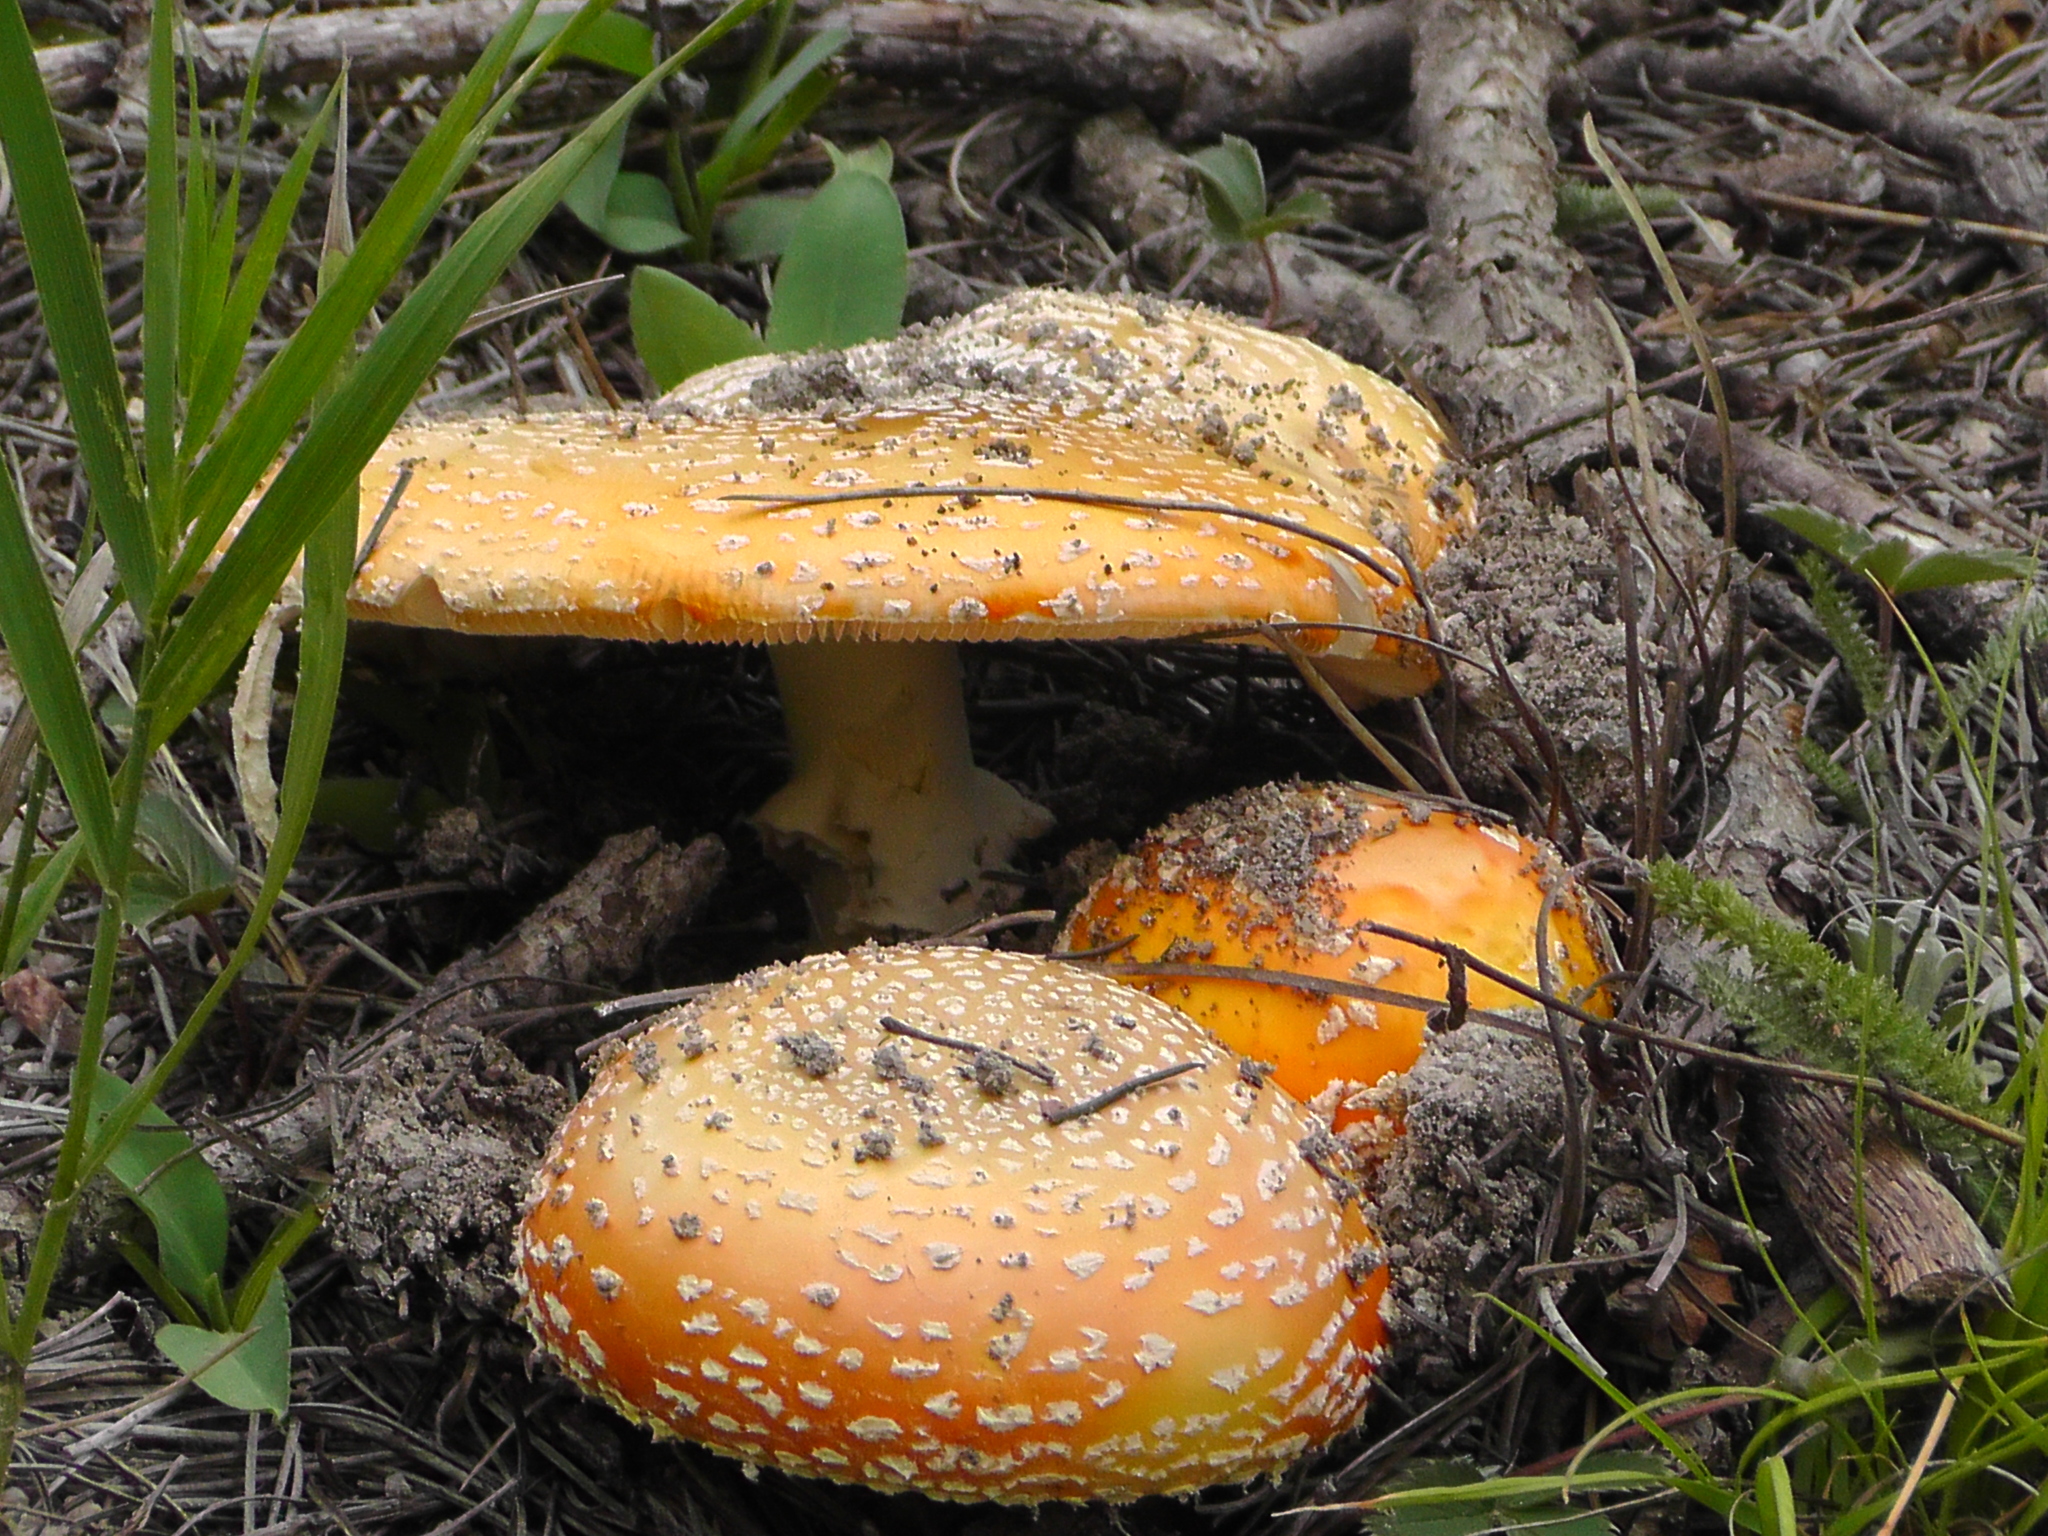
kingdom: Fungi
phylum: Basidiomycota
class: Agaricomycetes
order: Agaricales
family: Amanitaceae
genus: Amanita
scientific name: Amanita muscaria
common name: Fly agaric
